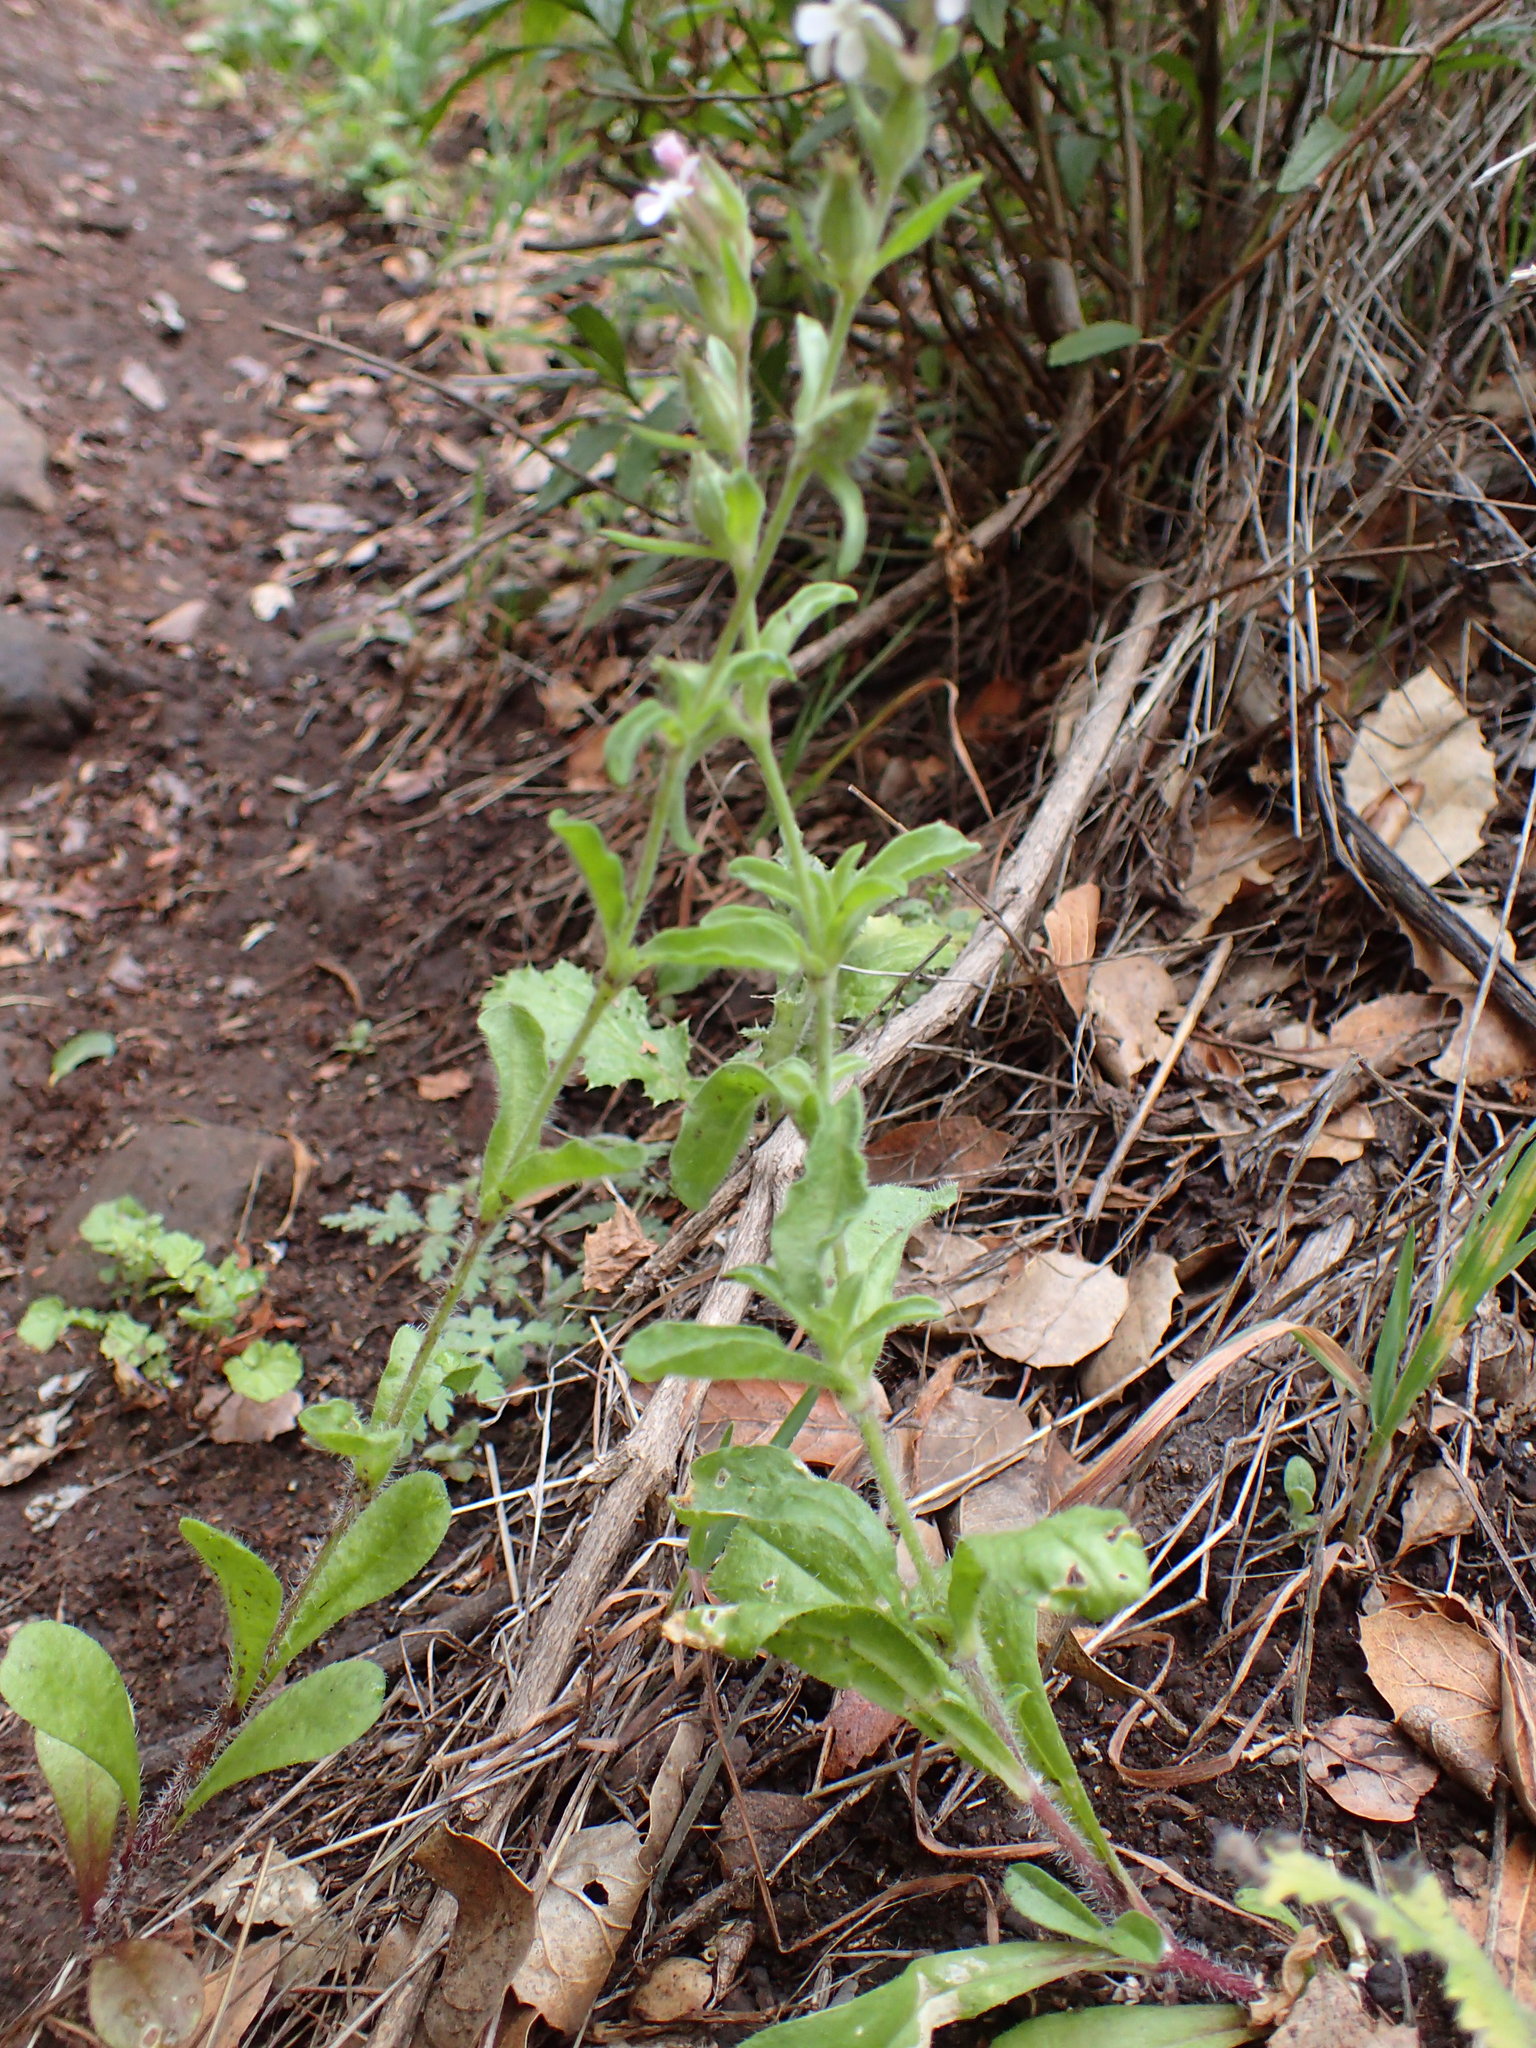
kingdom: Plantae
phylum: Tracheophyta
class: Magnoliopsida
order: Caryophyllales
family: Caryophyllaceae
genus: Silene
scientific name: Silene gallica
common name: Small-flowered catchfly
